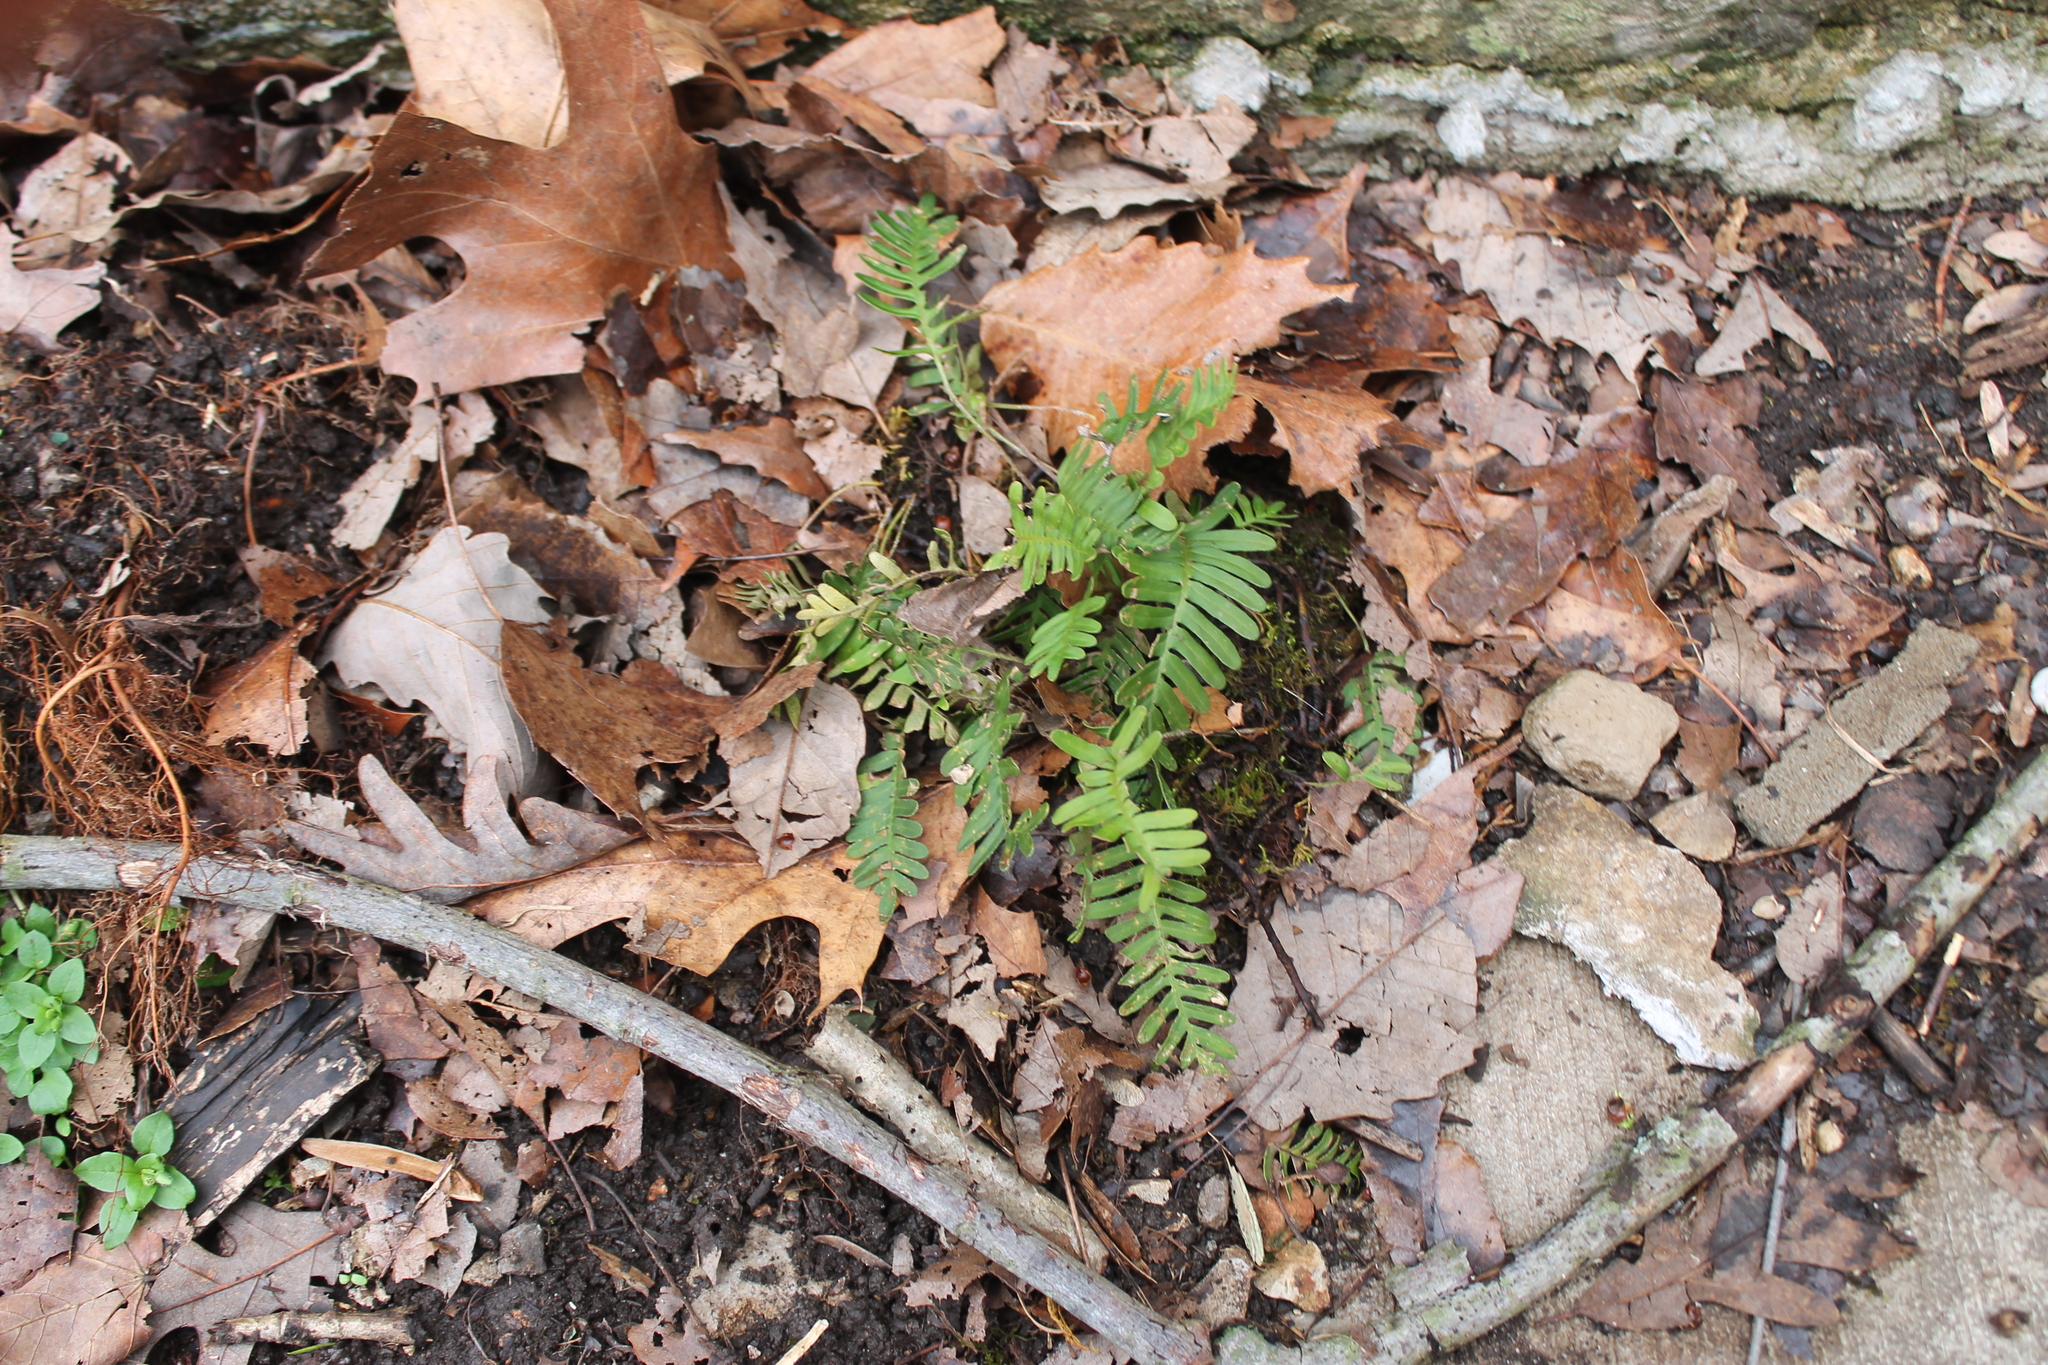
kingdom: Plantae
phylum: Tracheophyta
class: Polypodiopsida
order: Polypodiales
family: Polypodiaceae
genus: Pleopeltis
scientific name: Pleopeltis michauxiana
